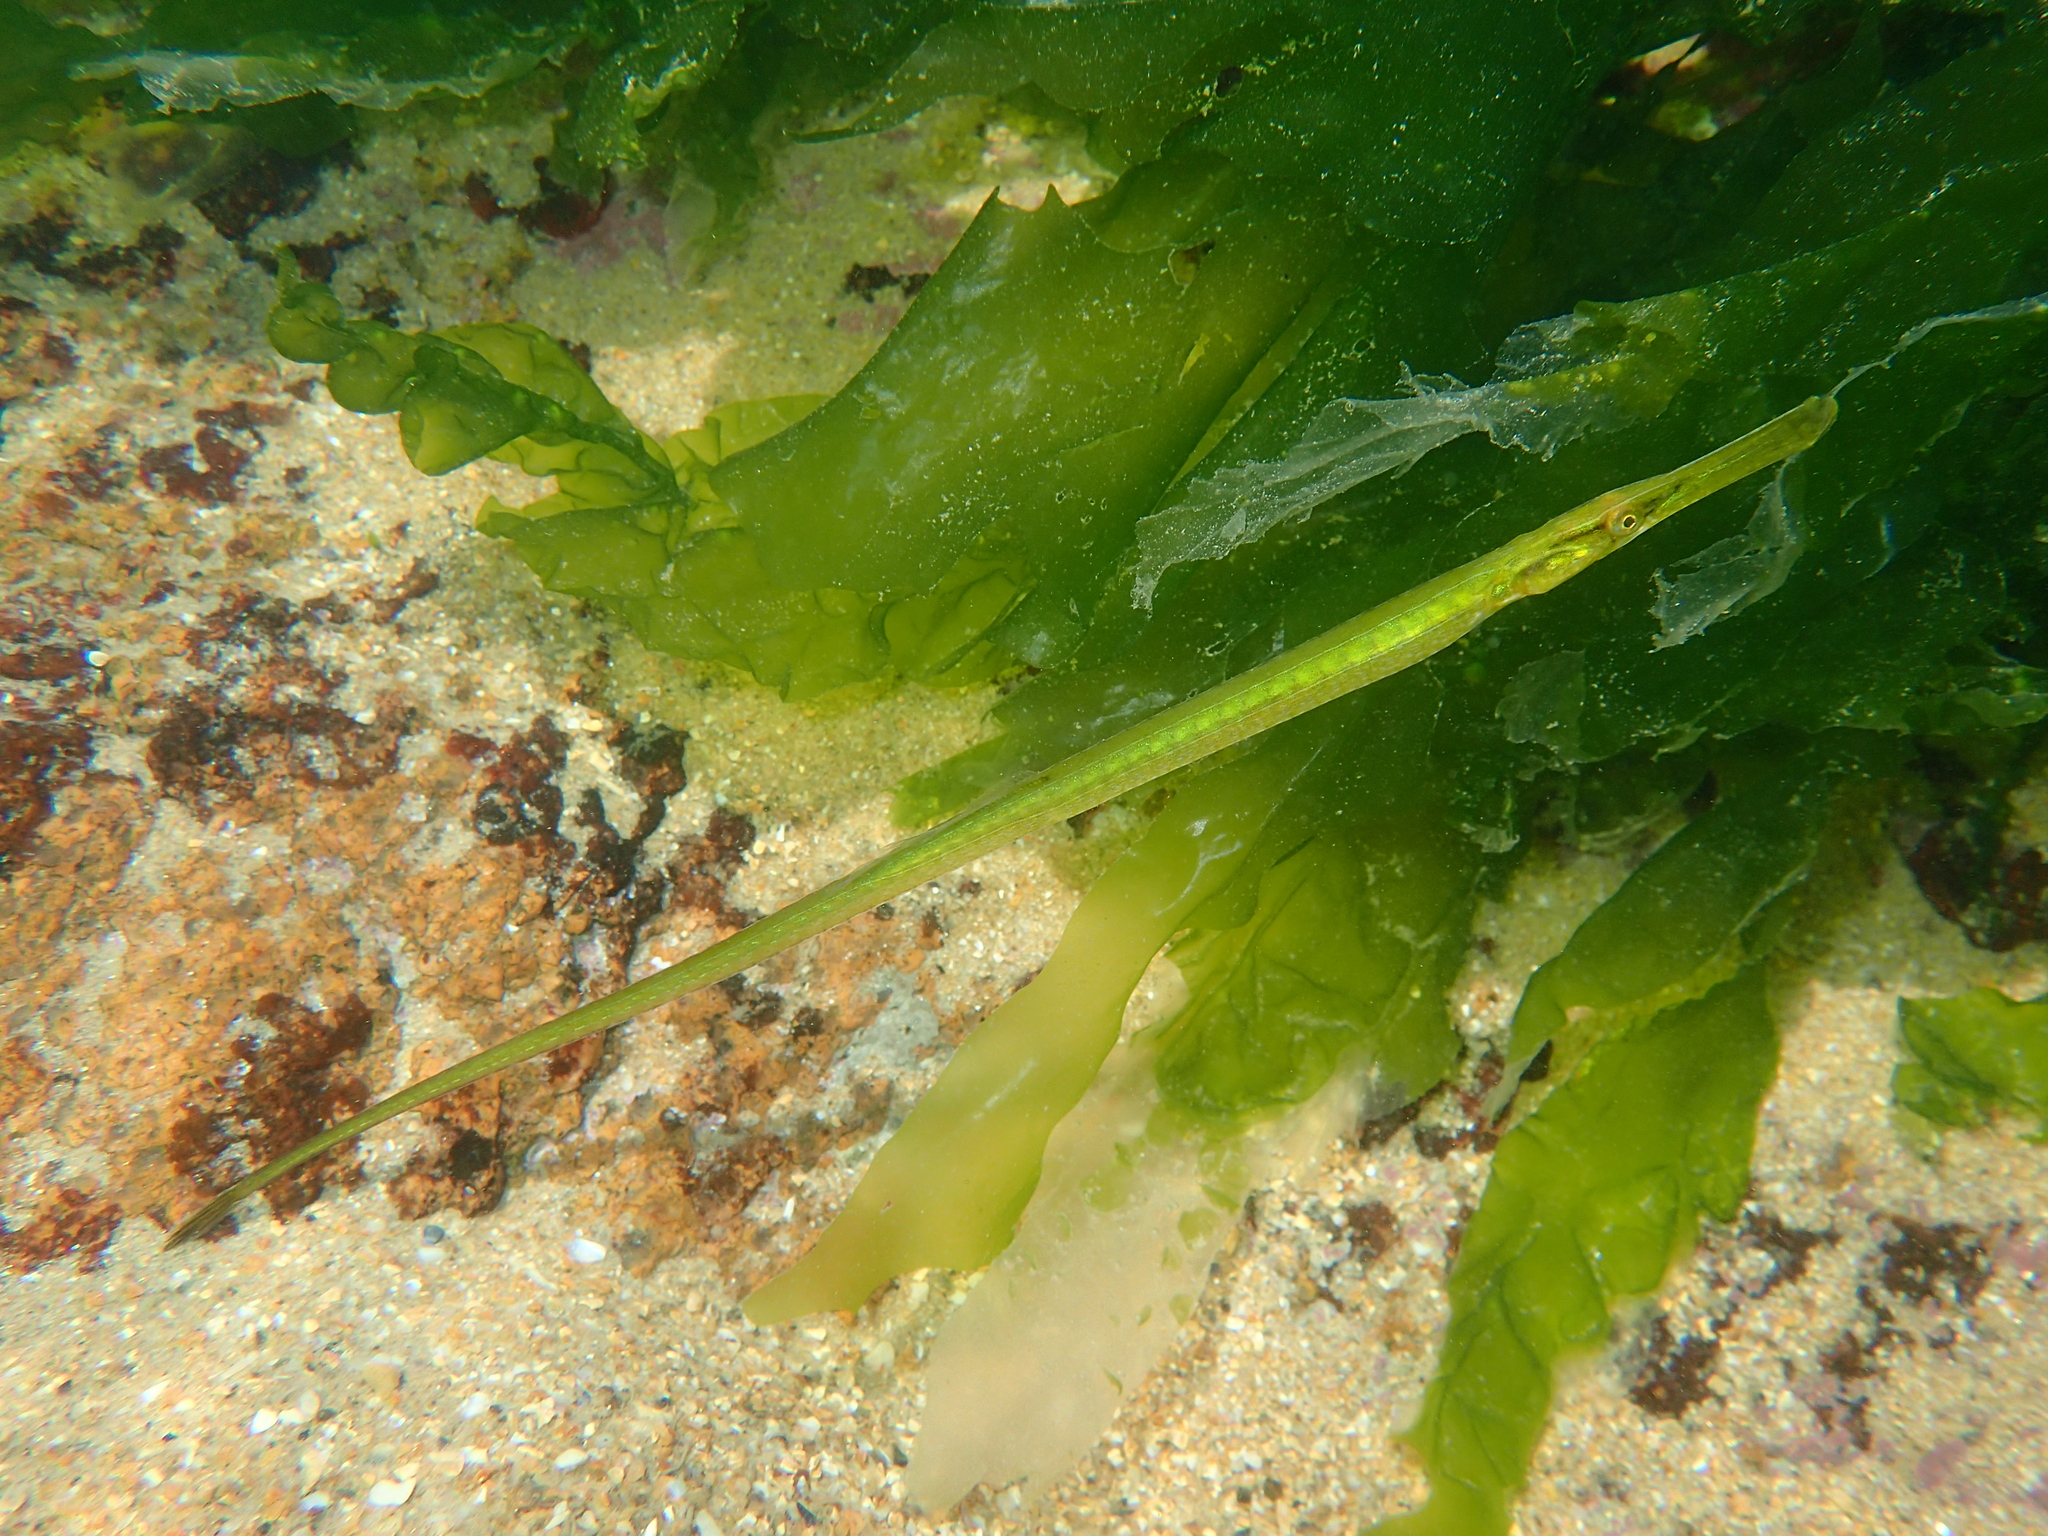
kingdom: Animalia
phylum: Chordata
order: Syngnathiformes
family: Syngnathidae
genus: Syngnathus
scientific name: Syngnathus typhle
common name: Deep-snouted pipefish
